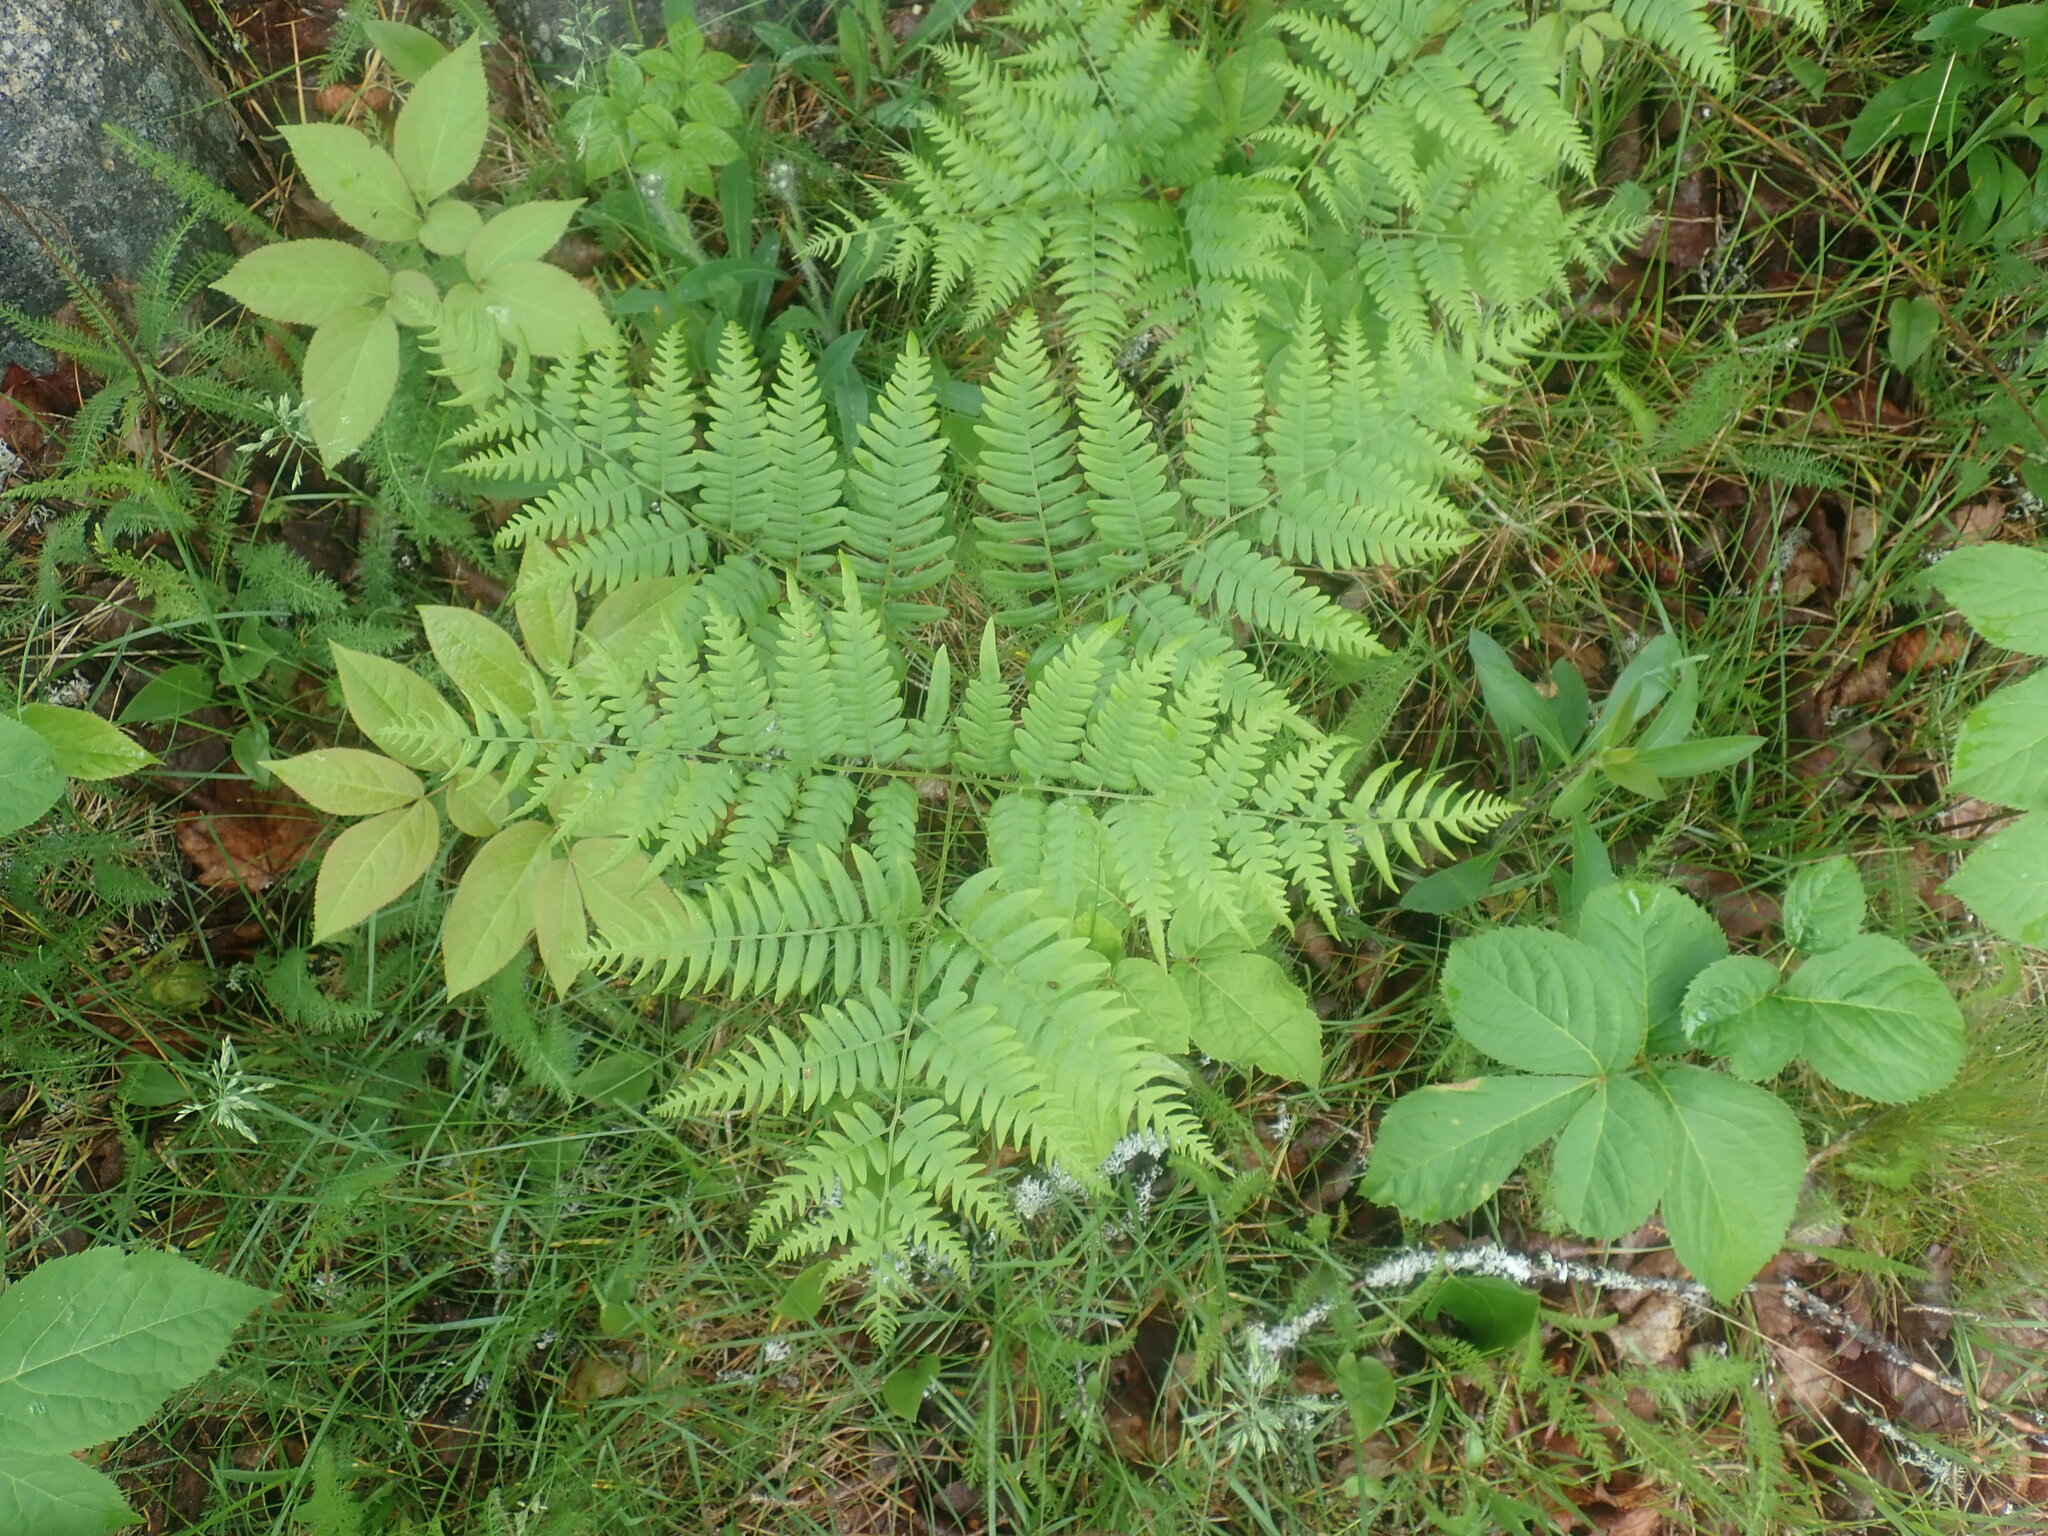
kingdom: Plantae
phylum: Tracheophyta
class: Polypodiopsida
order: Polypodiales
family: Dennstaedtiaceae
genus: Pteridium
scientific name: Pteridium aquilinum
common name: Bracken
